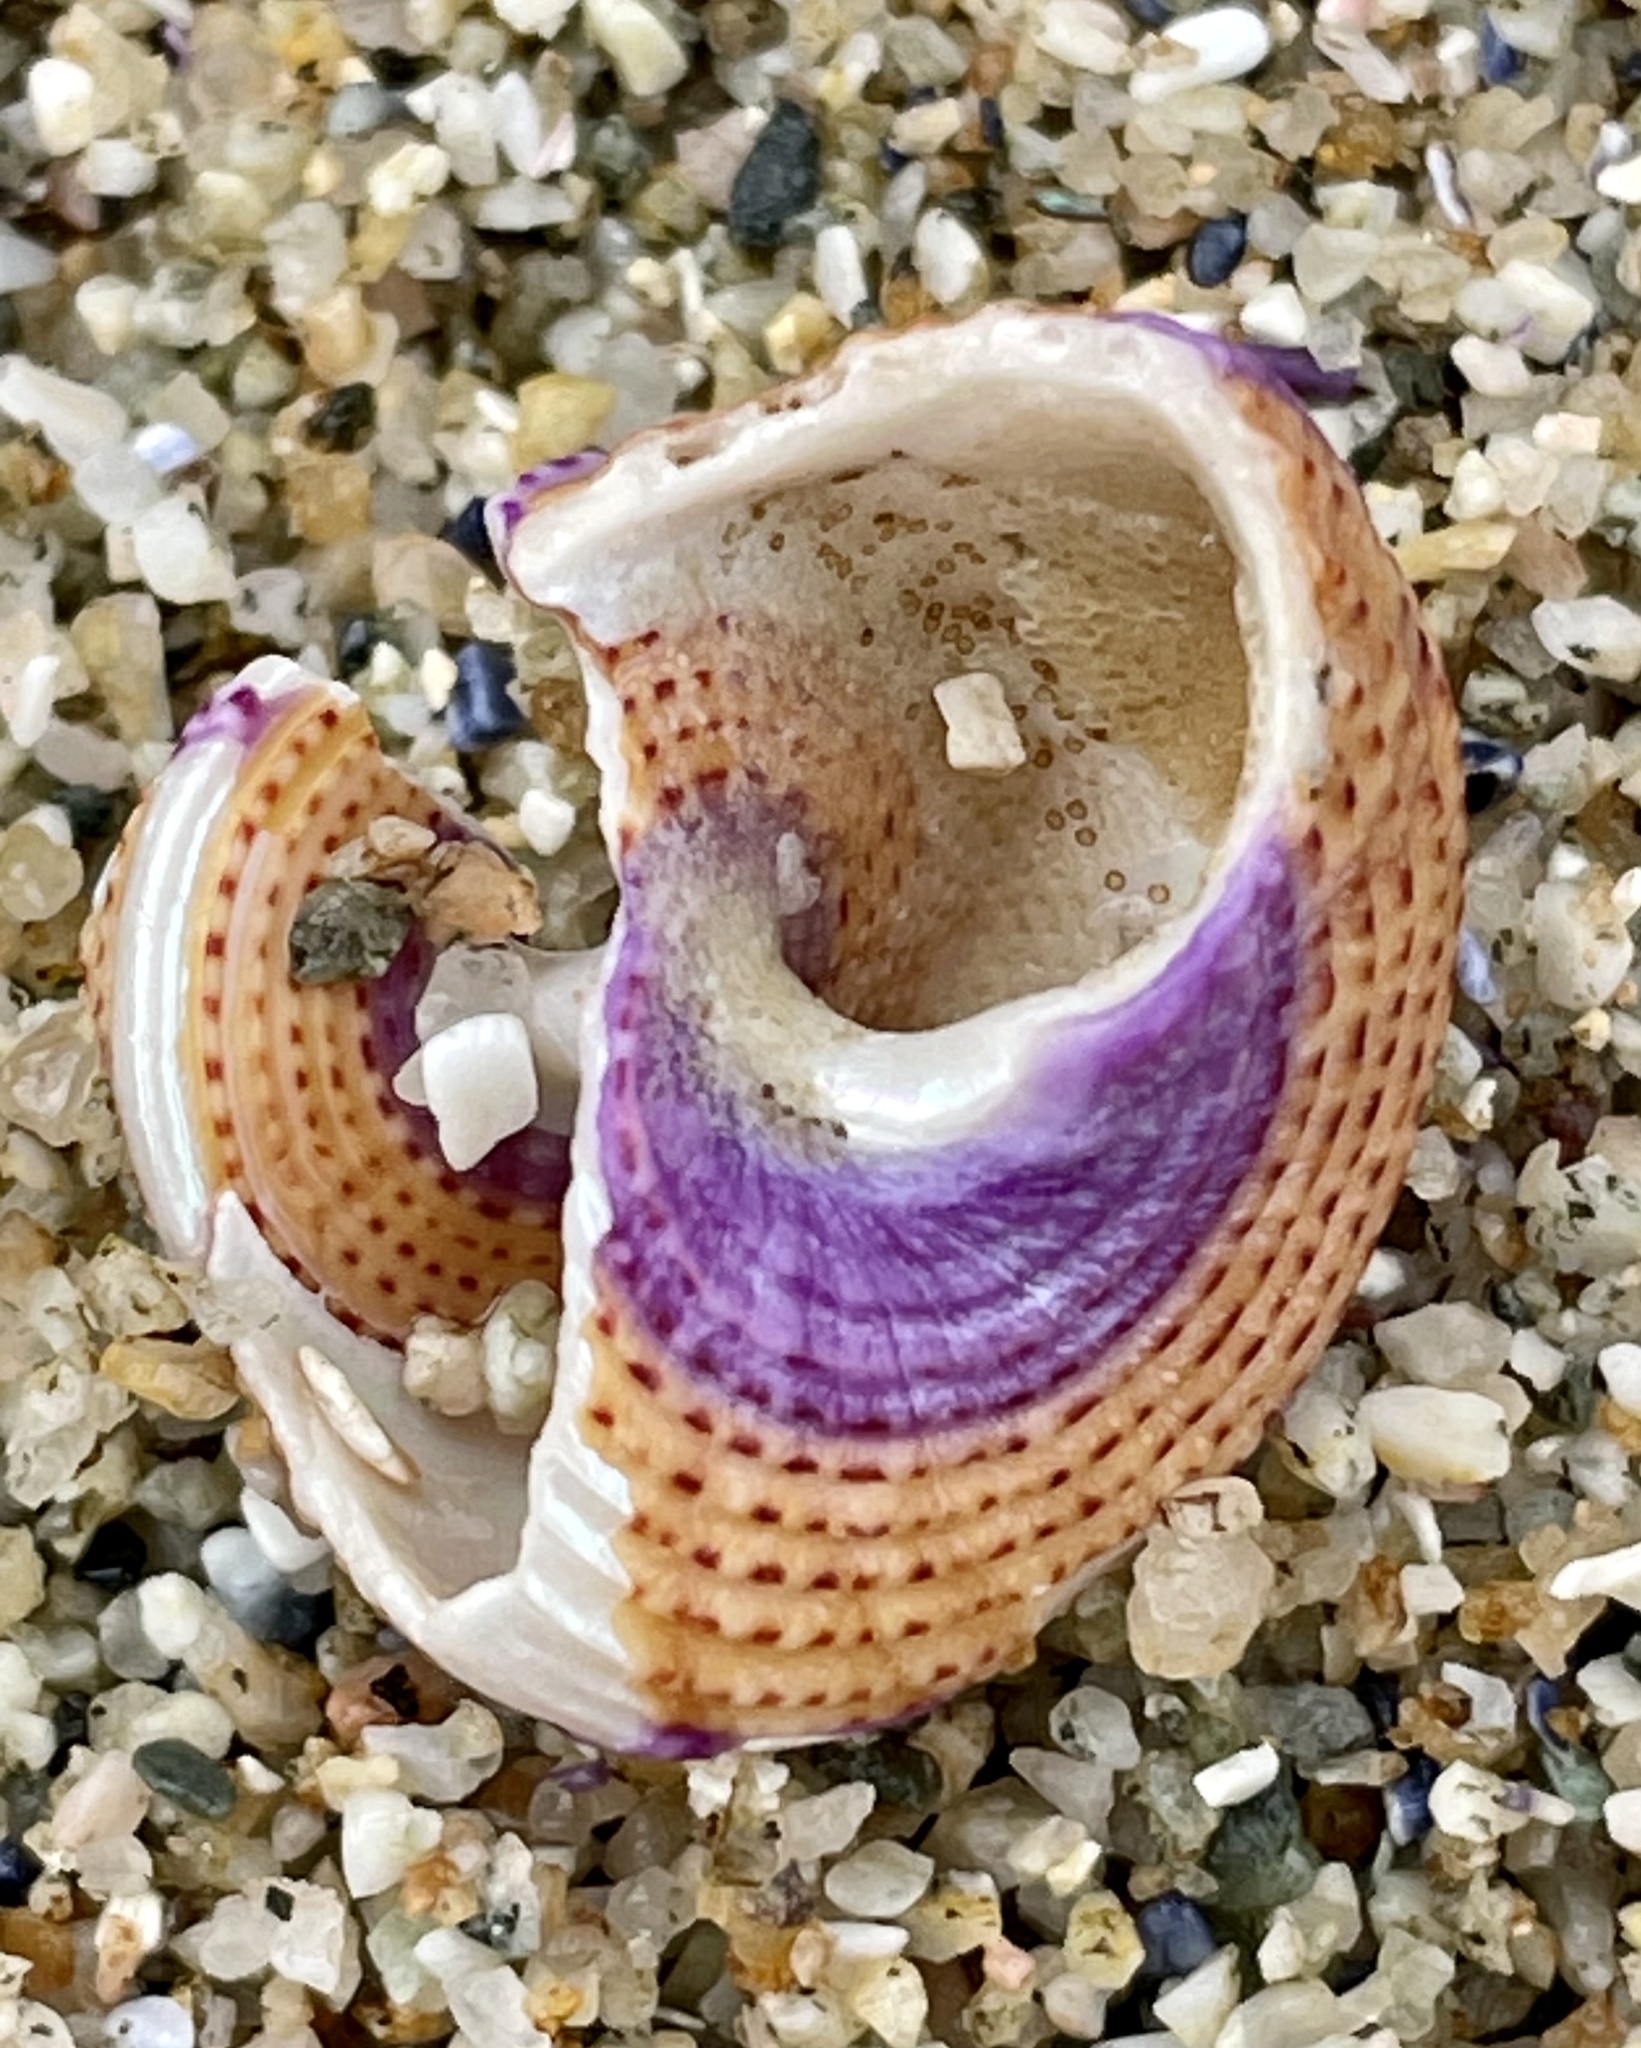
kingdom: Animalia
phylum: Mollusca
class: Gastropoda
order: Trochida
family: Calliostomatidae
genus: Calliostoma
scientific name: Calliostoma annulatum
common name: Blue-ring topsnail
